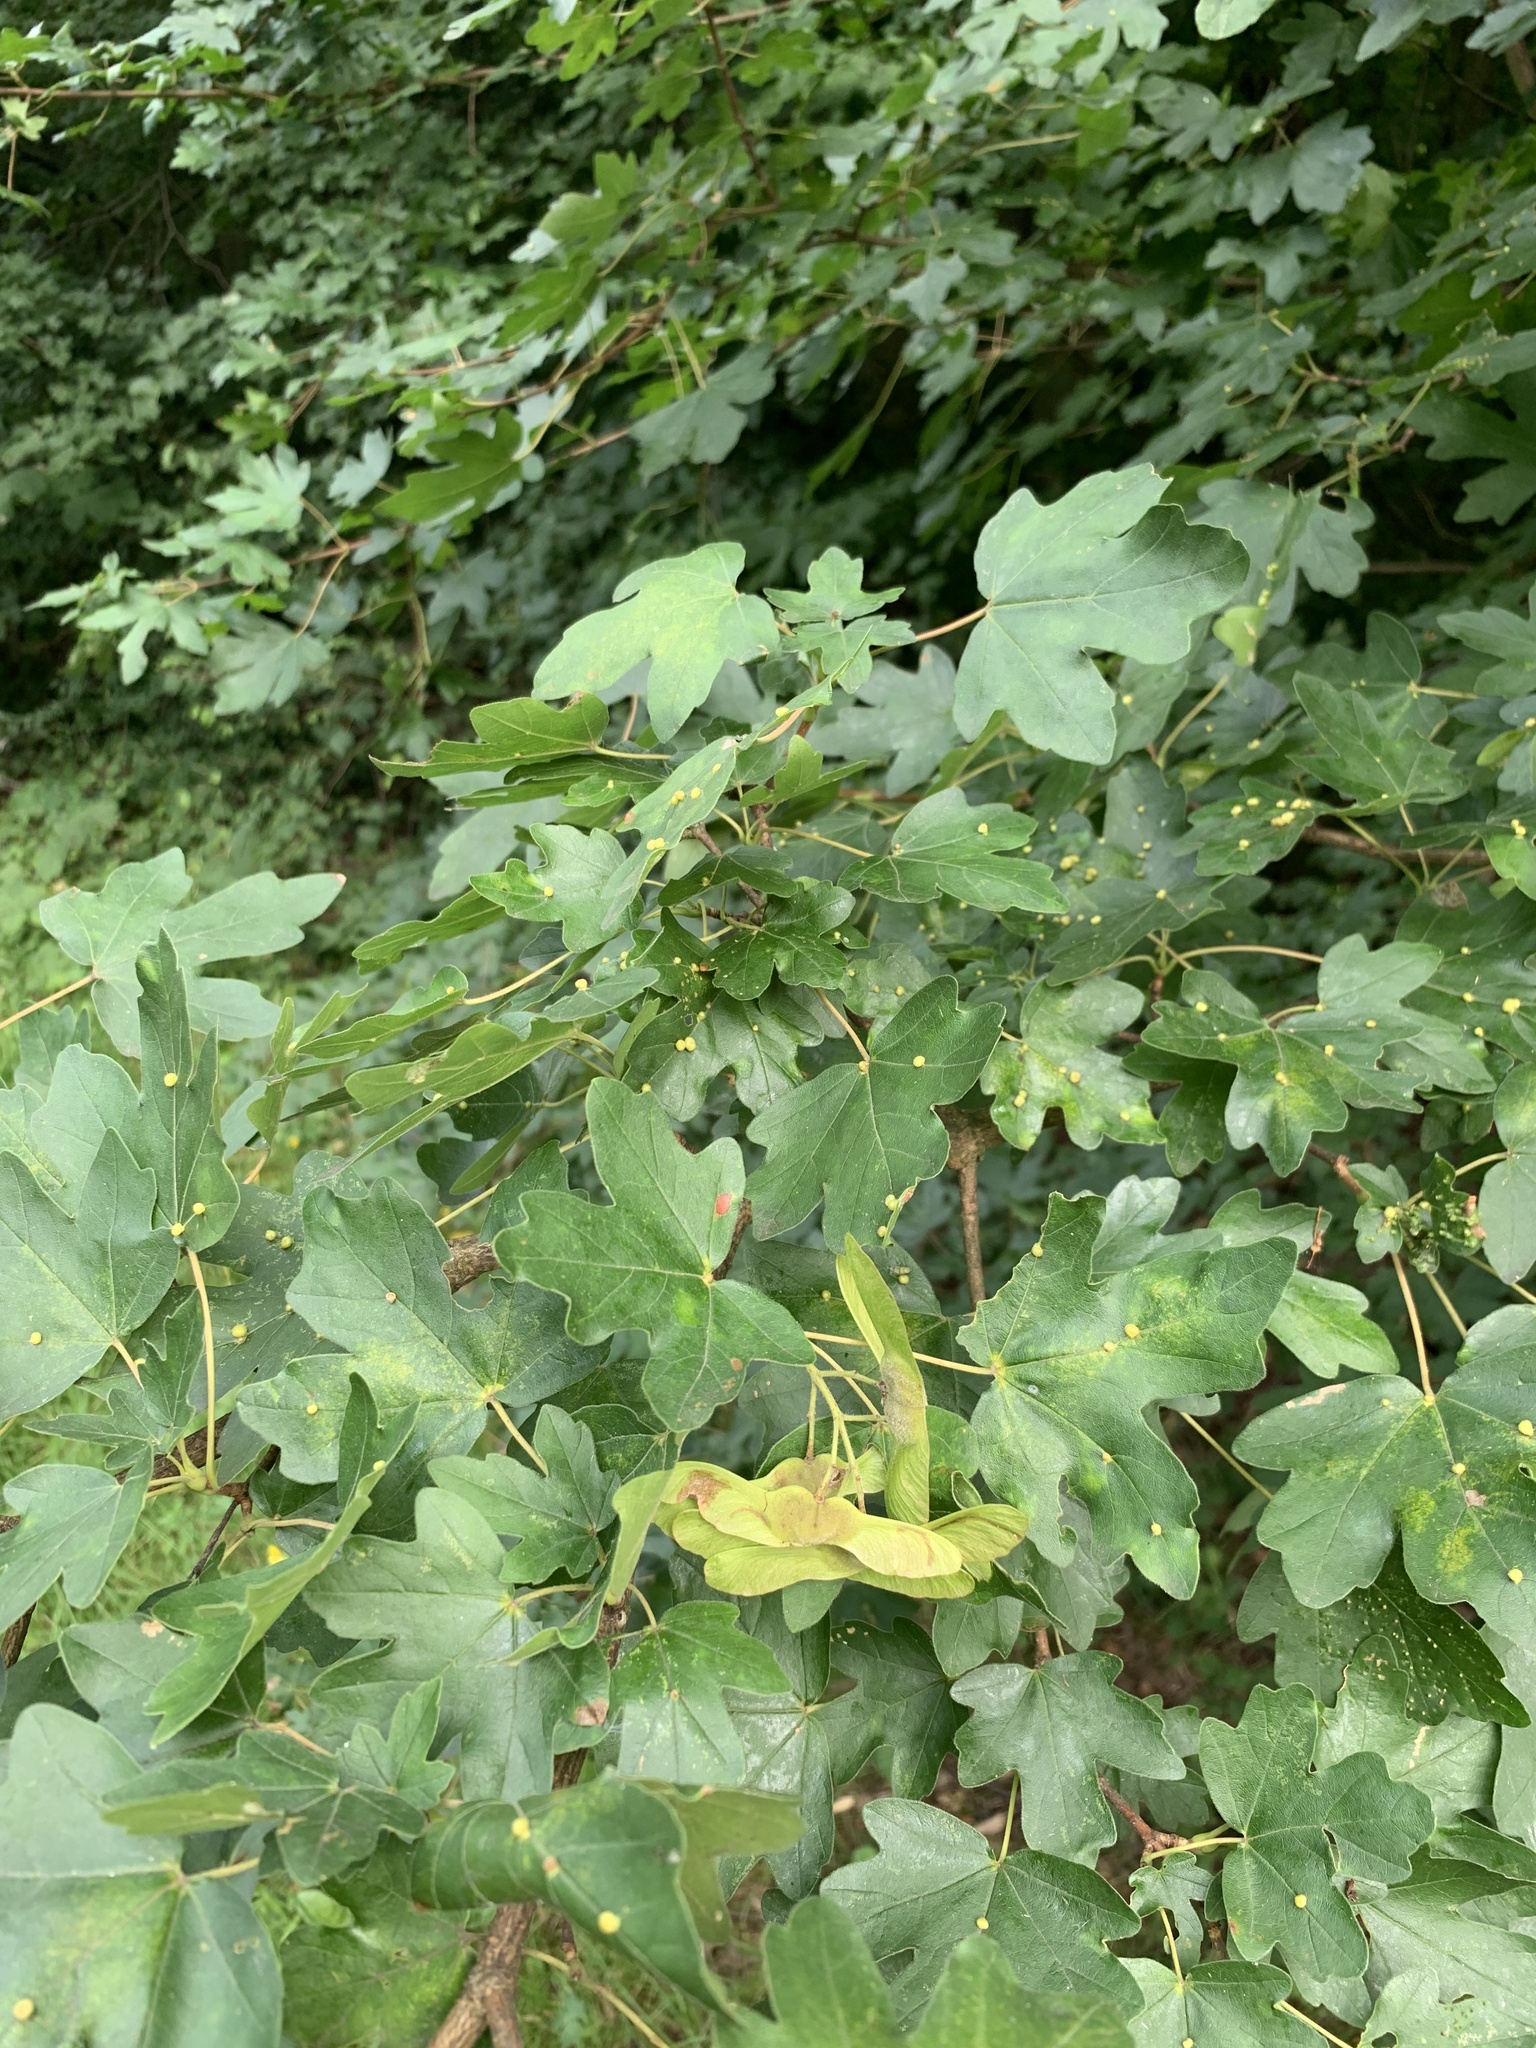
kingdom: Plantae
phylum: Tracheophyta
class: Magnoliopsida
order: Sapindales
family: Sapindaceae
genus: Acer
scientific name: Acer campestre
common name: Field maple
